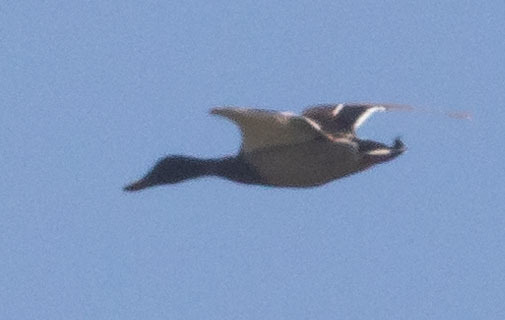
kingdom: Animalia
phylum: Chordata
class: Aves
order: Anseriformes
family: Anatidae
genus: Anas
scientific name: Anas platyrhynchos
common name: Mallard
